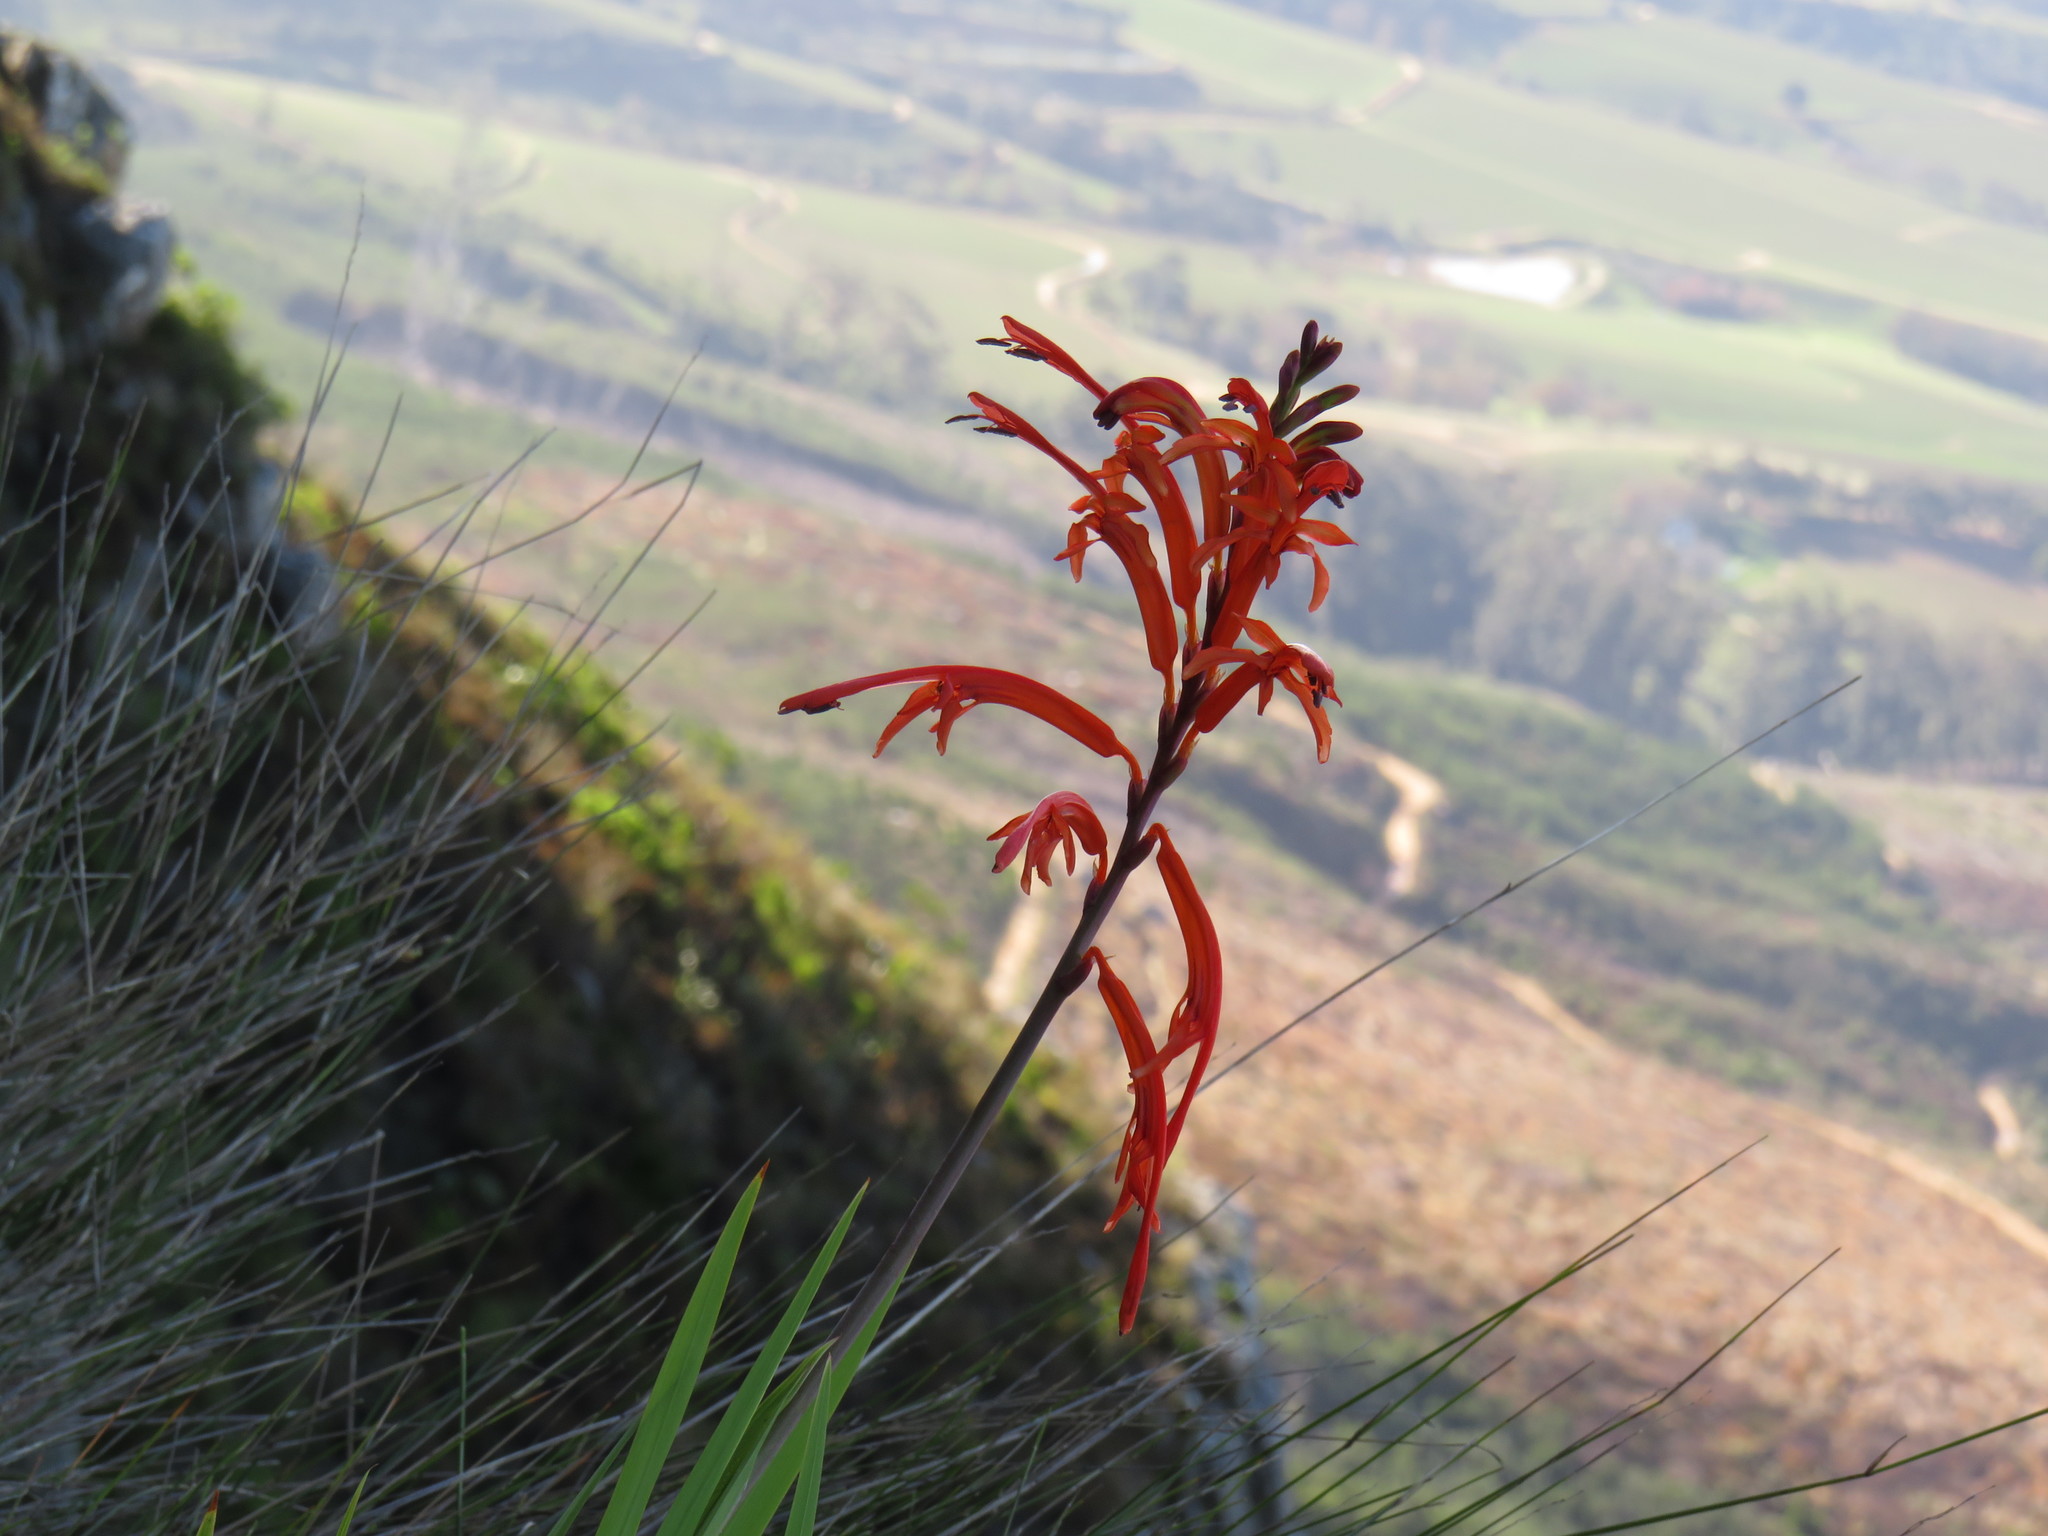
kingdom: Plantae
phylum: Tracheophyta
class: Liliopsida
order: Asparagales
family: Iridaceae
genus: Chasmanthe
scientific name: Chasmanthe floribunda
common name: African cornflag
